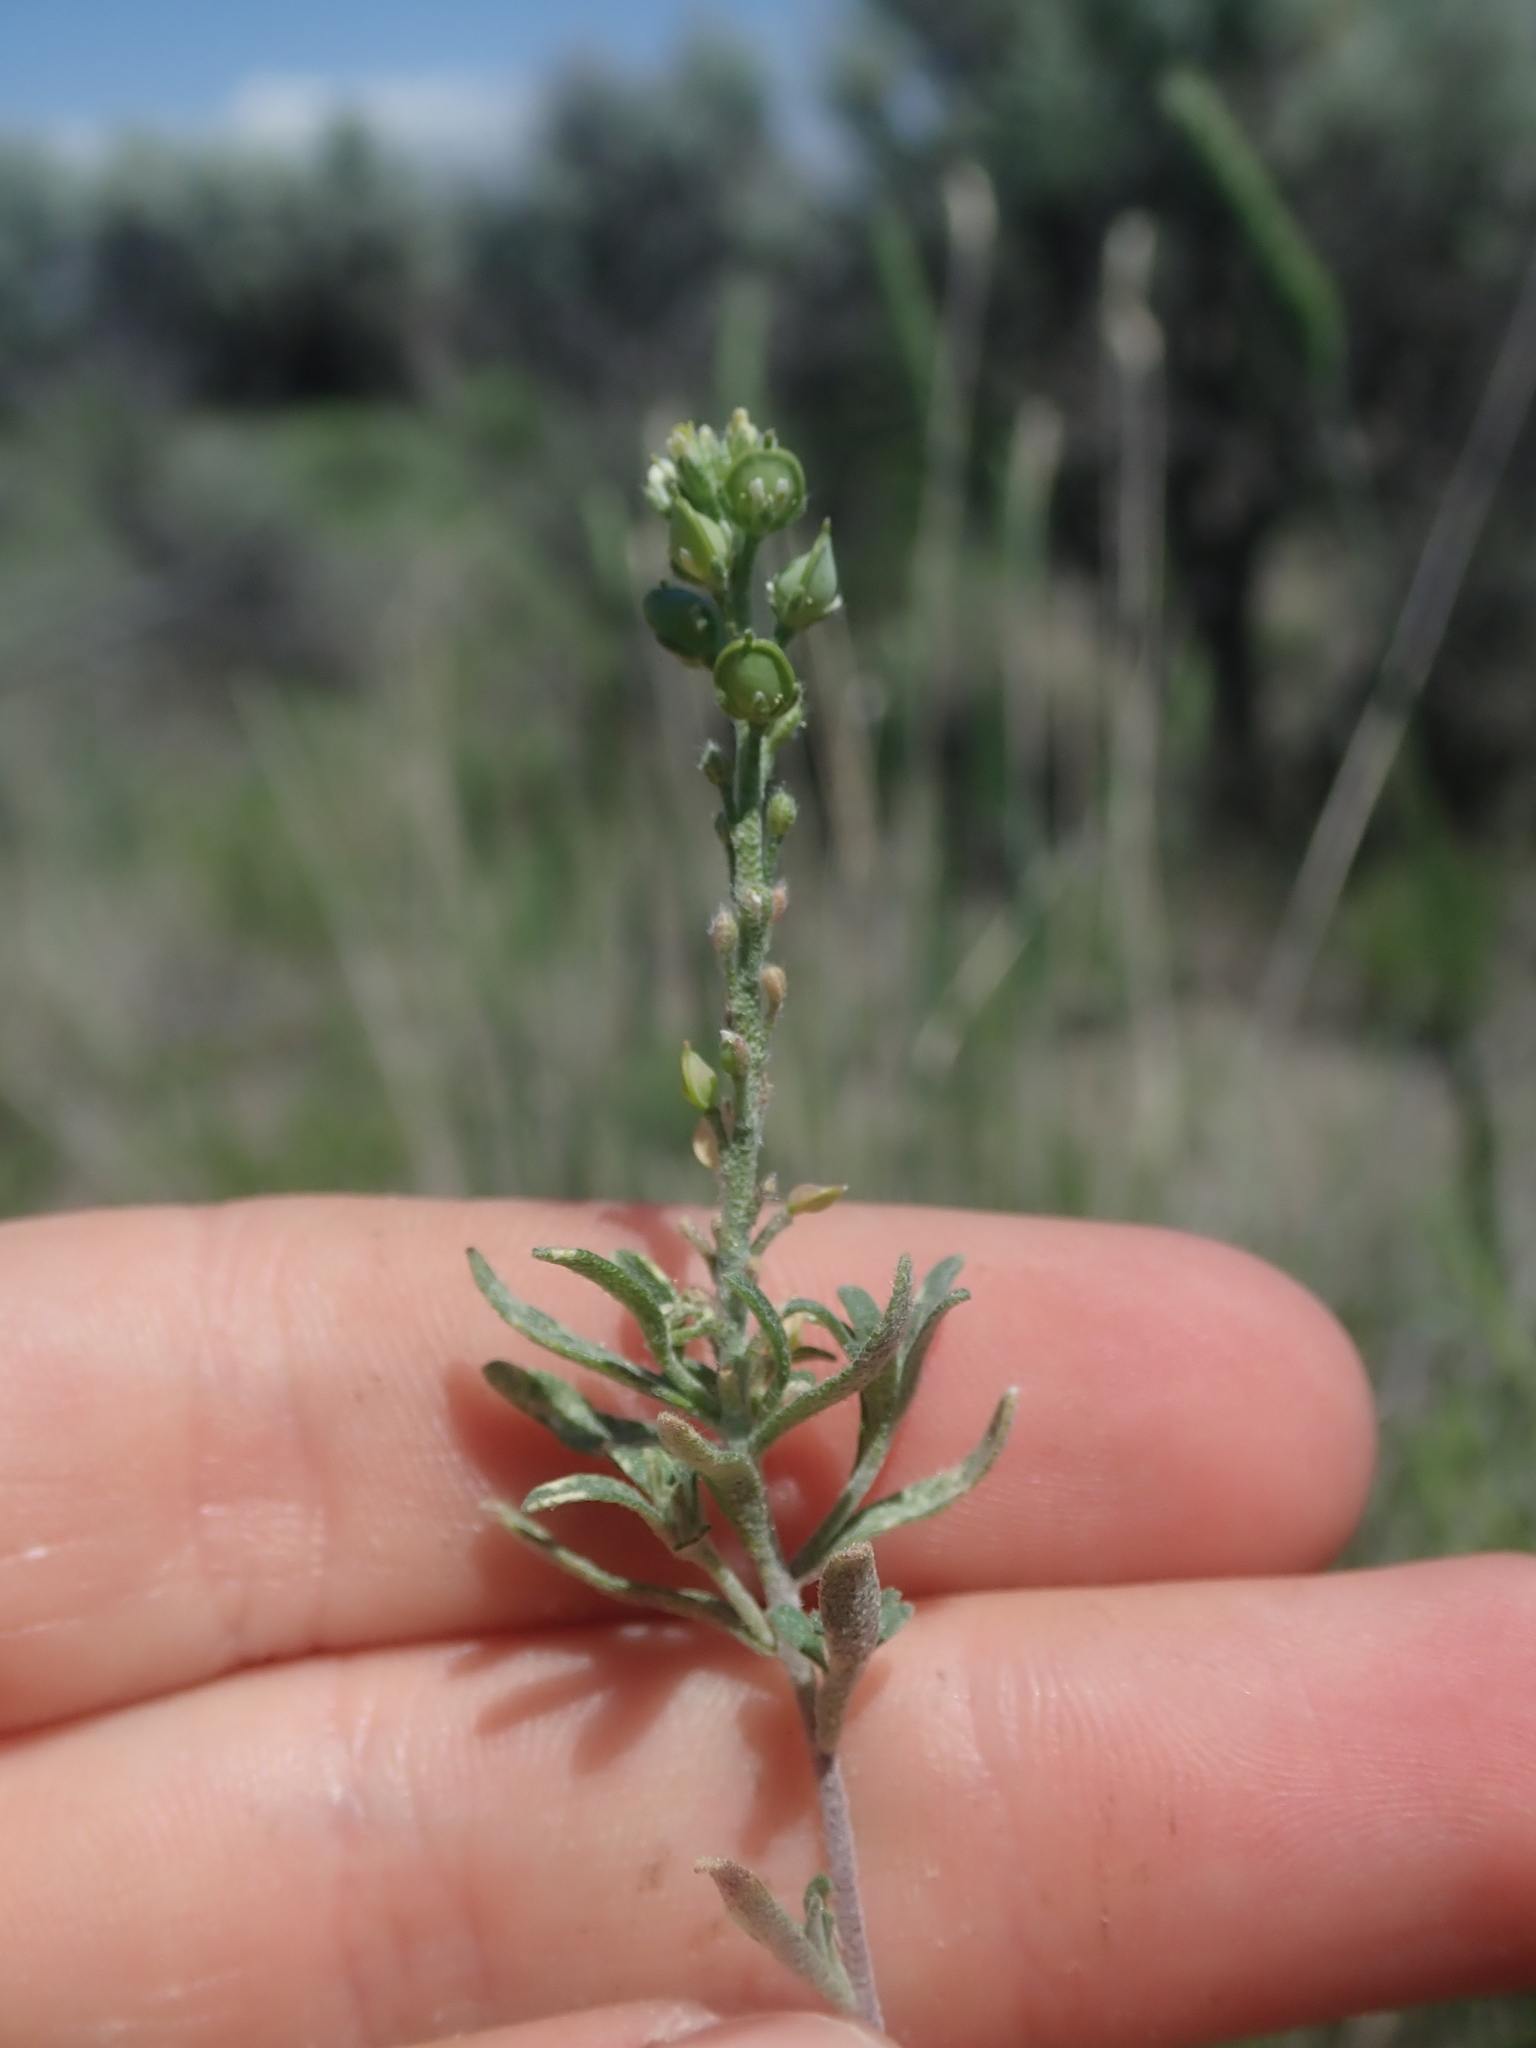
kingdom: Plantae
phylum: Tracheophyta
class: Magnoliopsida
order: Brassicales
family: Brassicaceae
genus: Alyssum
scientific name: Alyssum turkestanicum
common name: Desert alyssum
